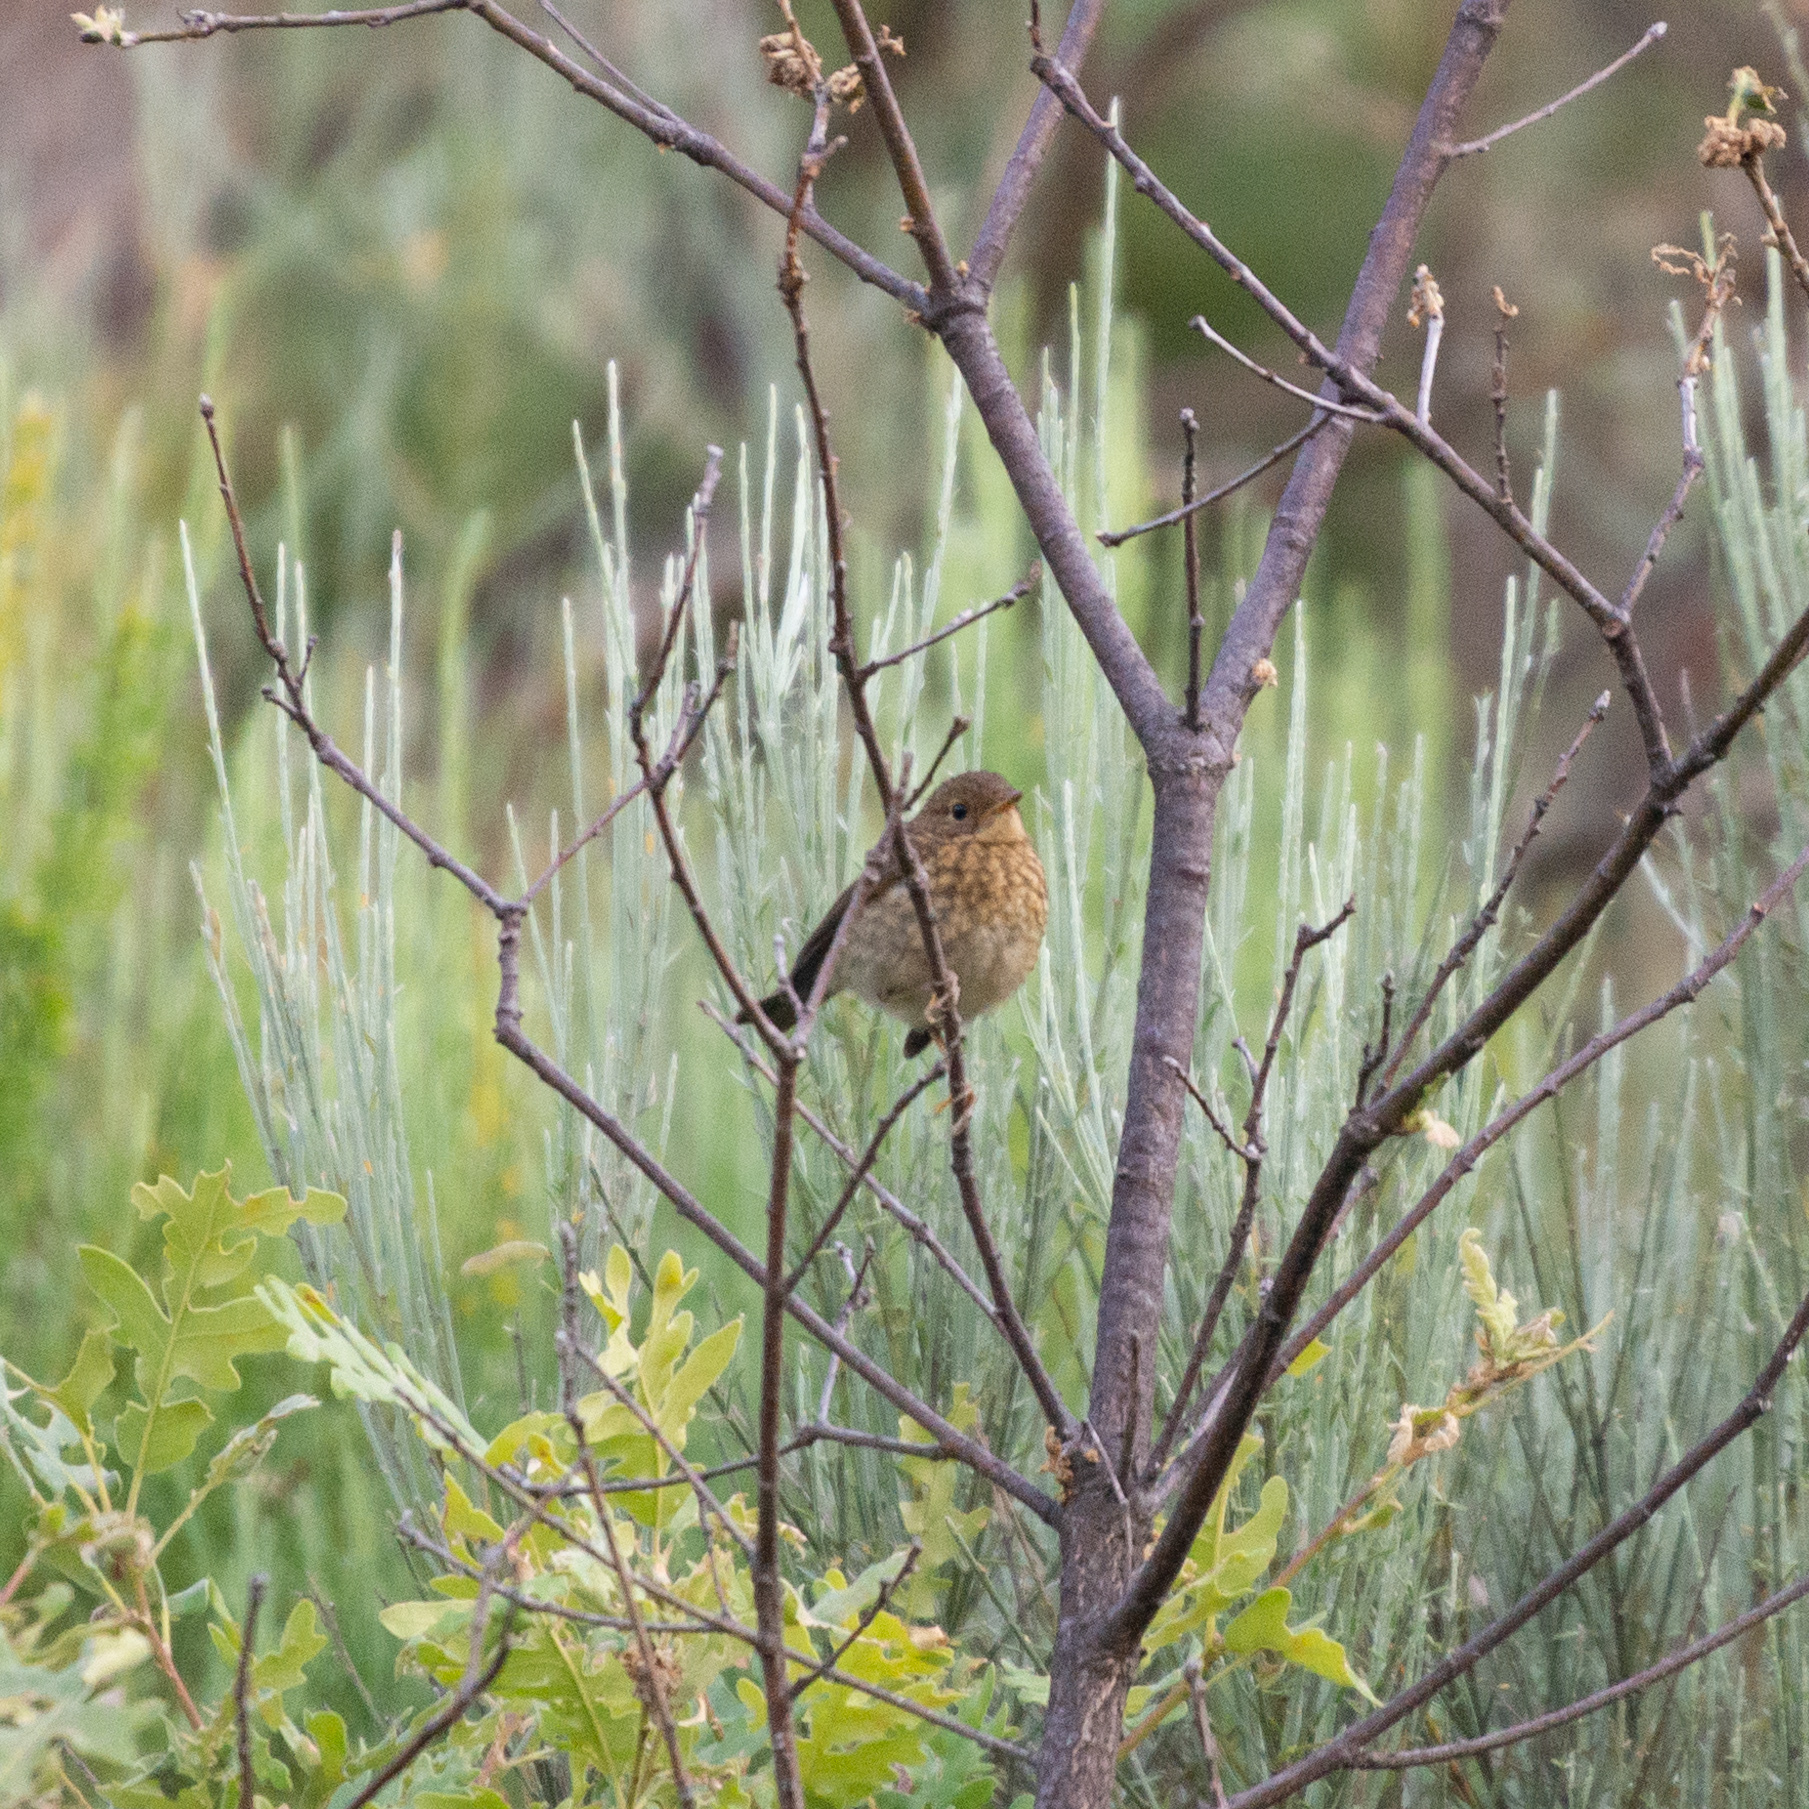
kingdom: Animalia
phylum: Chordata
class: Aves
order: Passeriformes
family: Muscicapidae
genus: Erithacus
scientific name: Erithacus rubecula
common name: European robin
